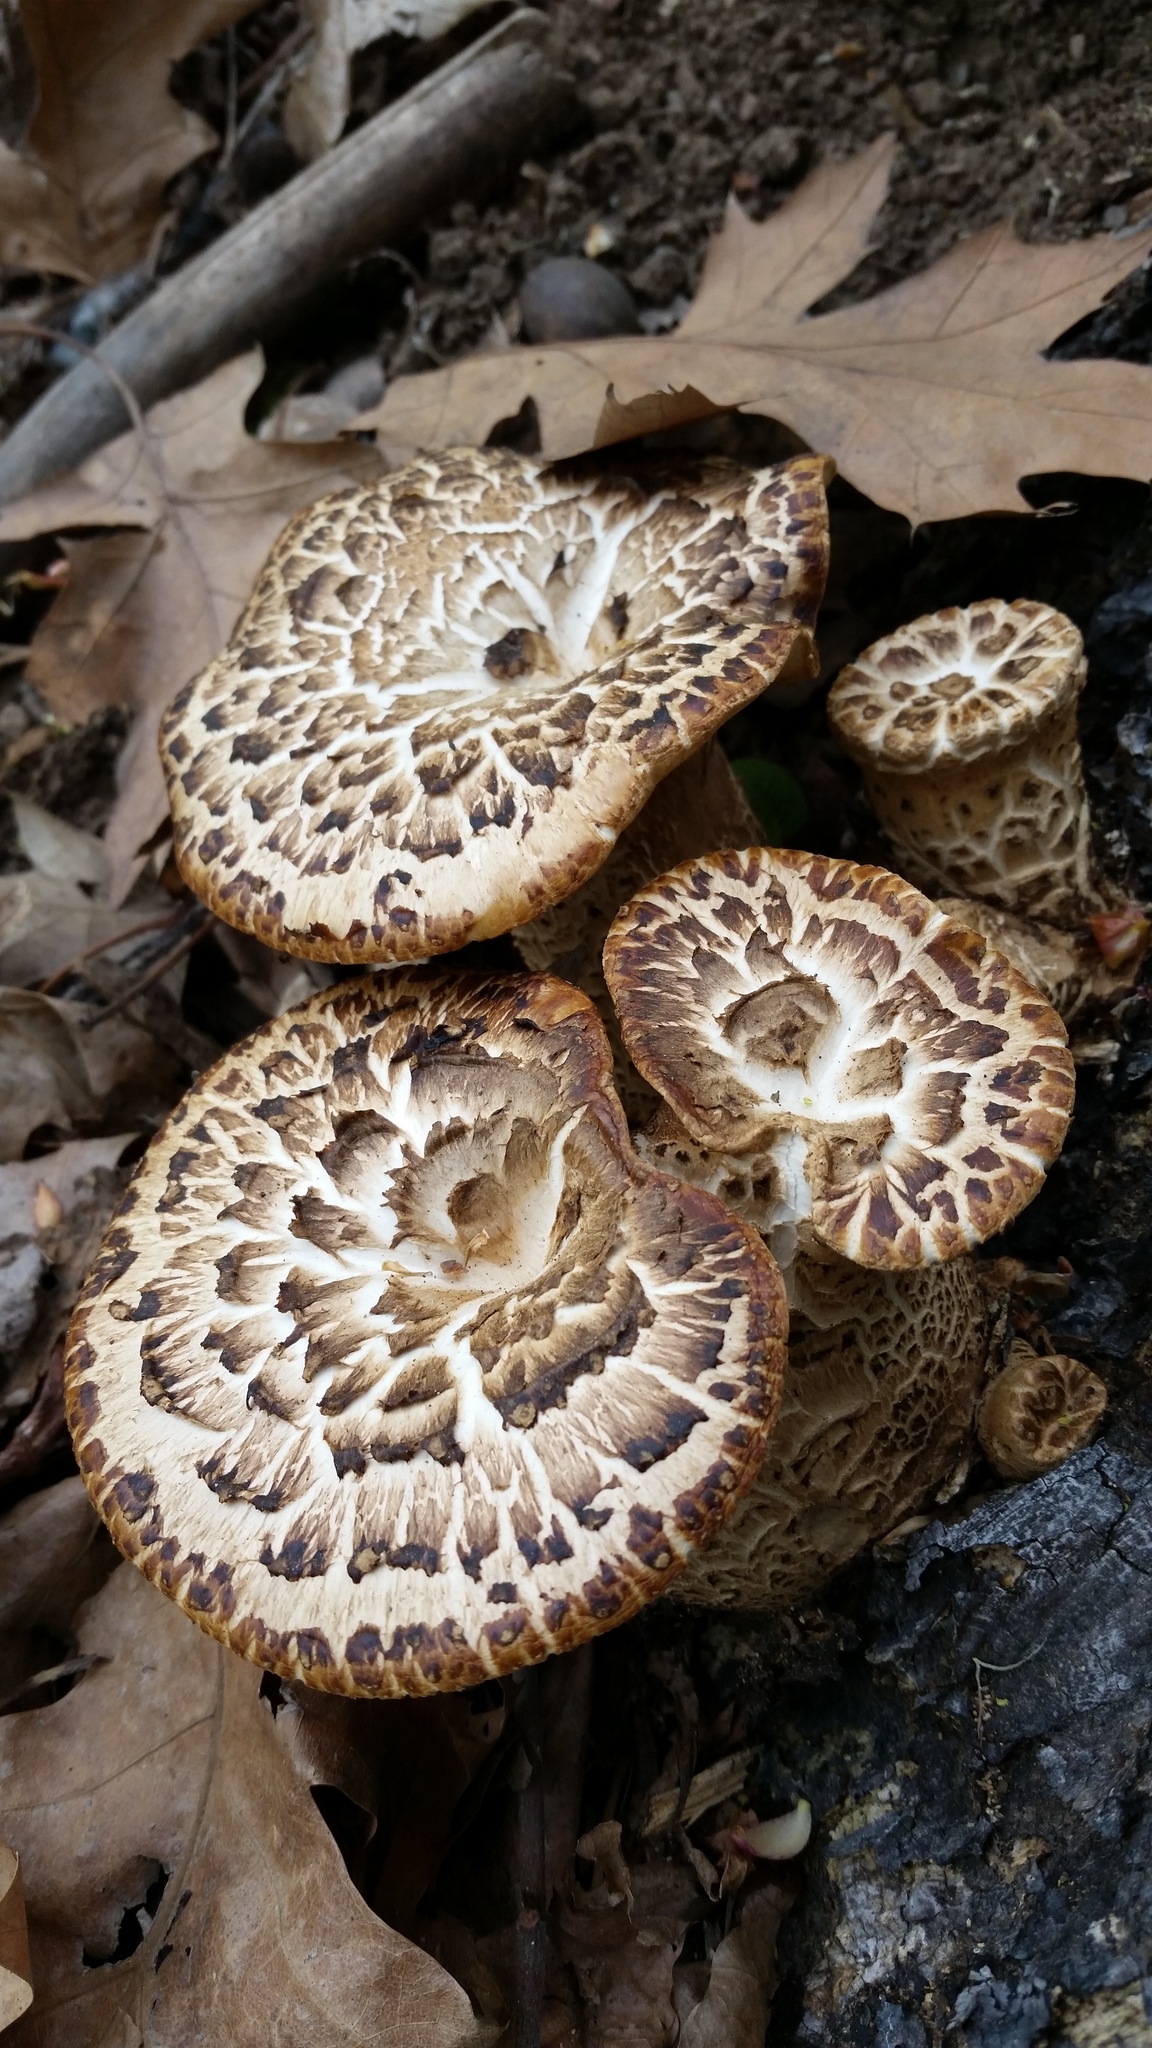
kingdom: Fungi
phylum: Basidiomycota
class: Agaricomycetes
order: Polyporales
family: Polyporaceae
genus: Cerioporus
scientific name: Cerioporus squamosus
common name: Dryad's saddle
